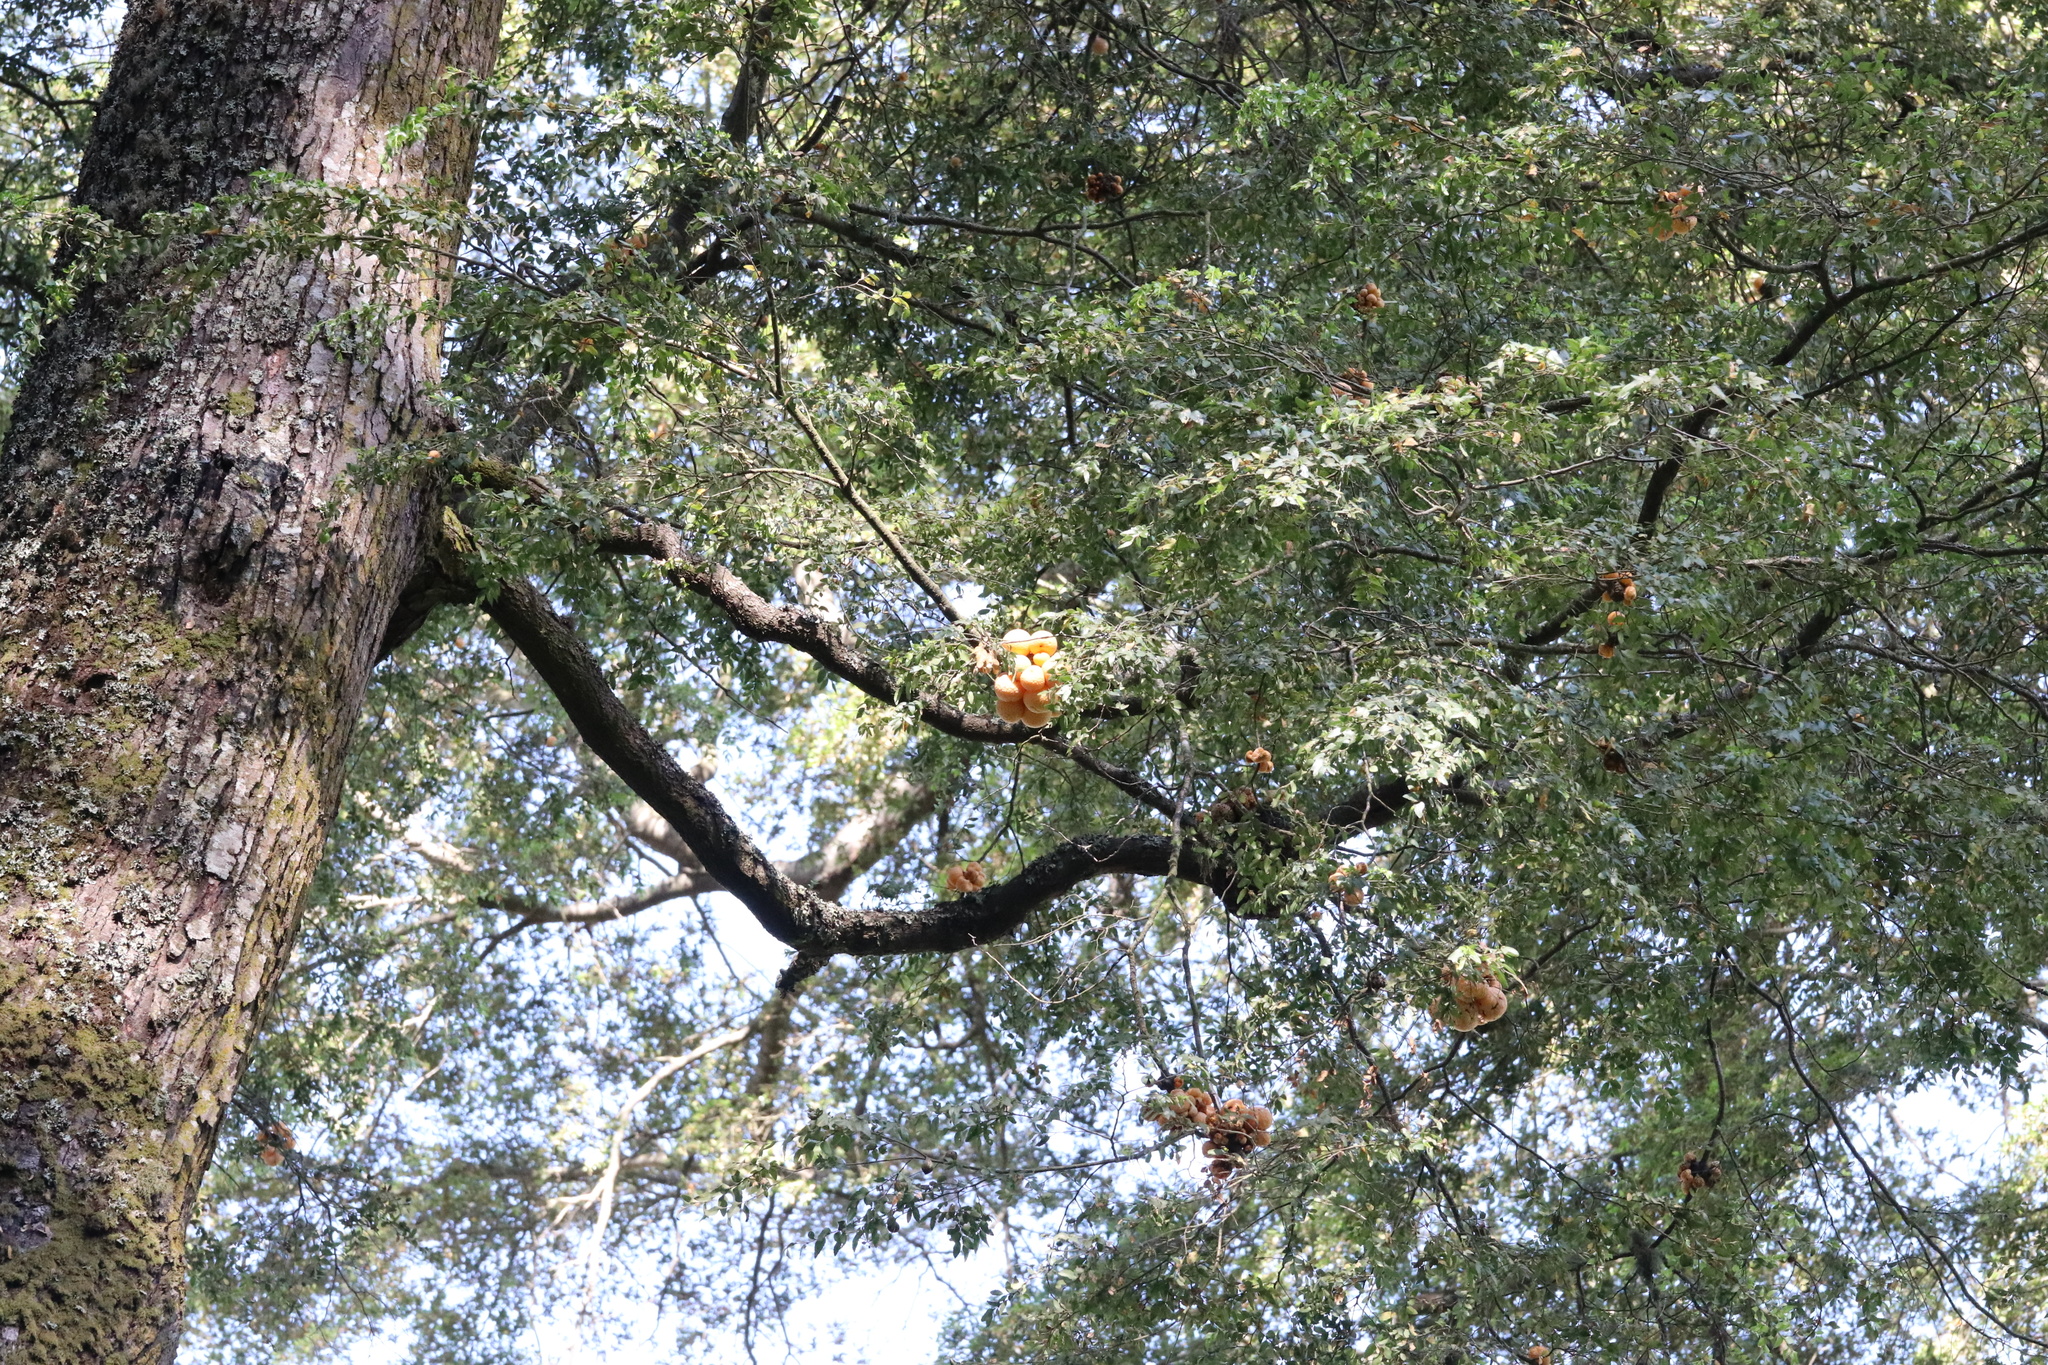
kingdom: Fungi
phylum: Ascomycota
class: Leotiomycetes
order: Cyttariales
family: Cyttariaceae
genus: Cyttaria
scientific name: Cyttaria hariotii
